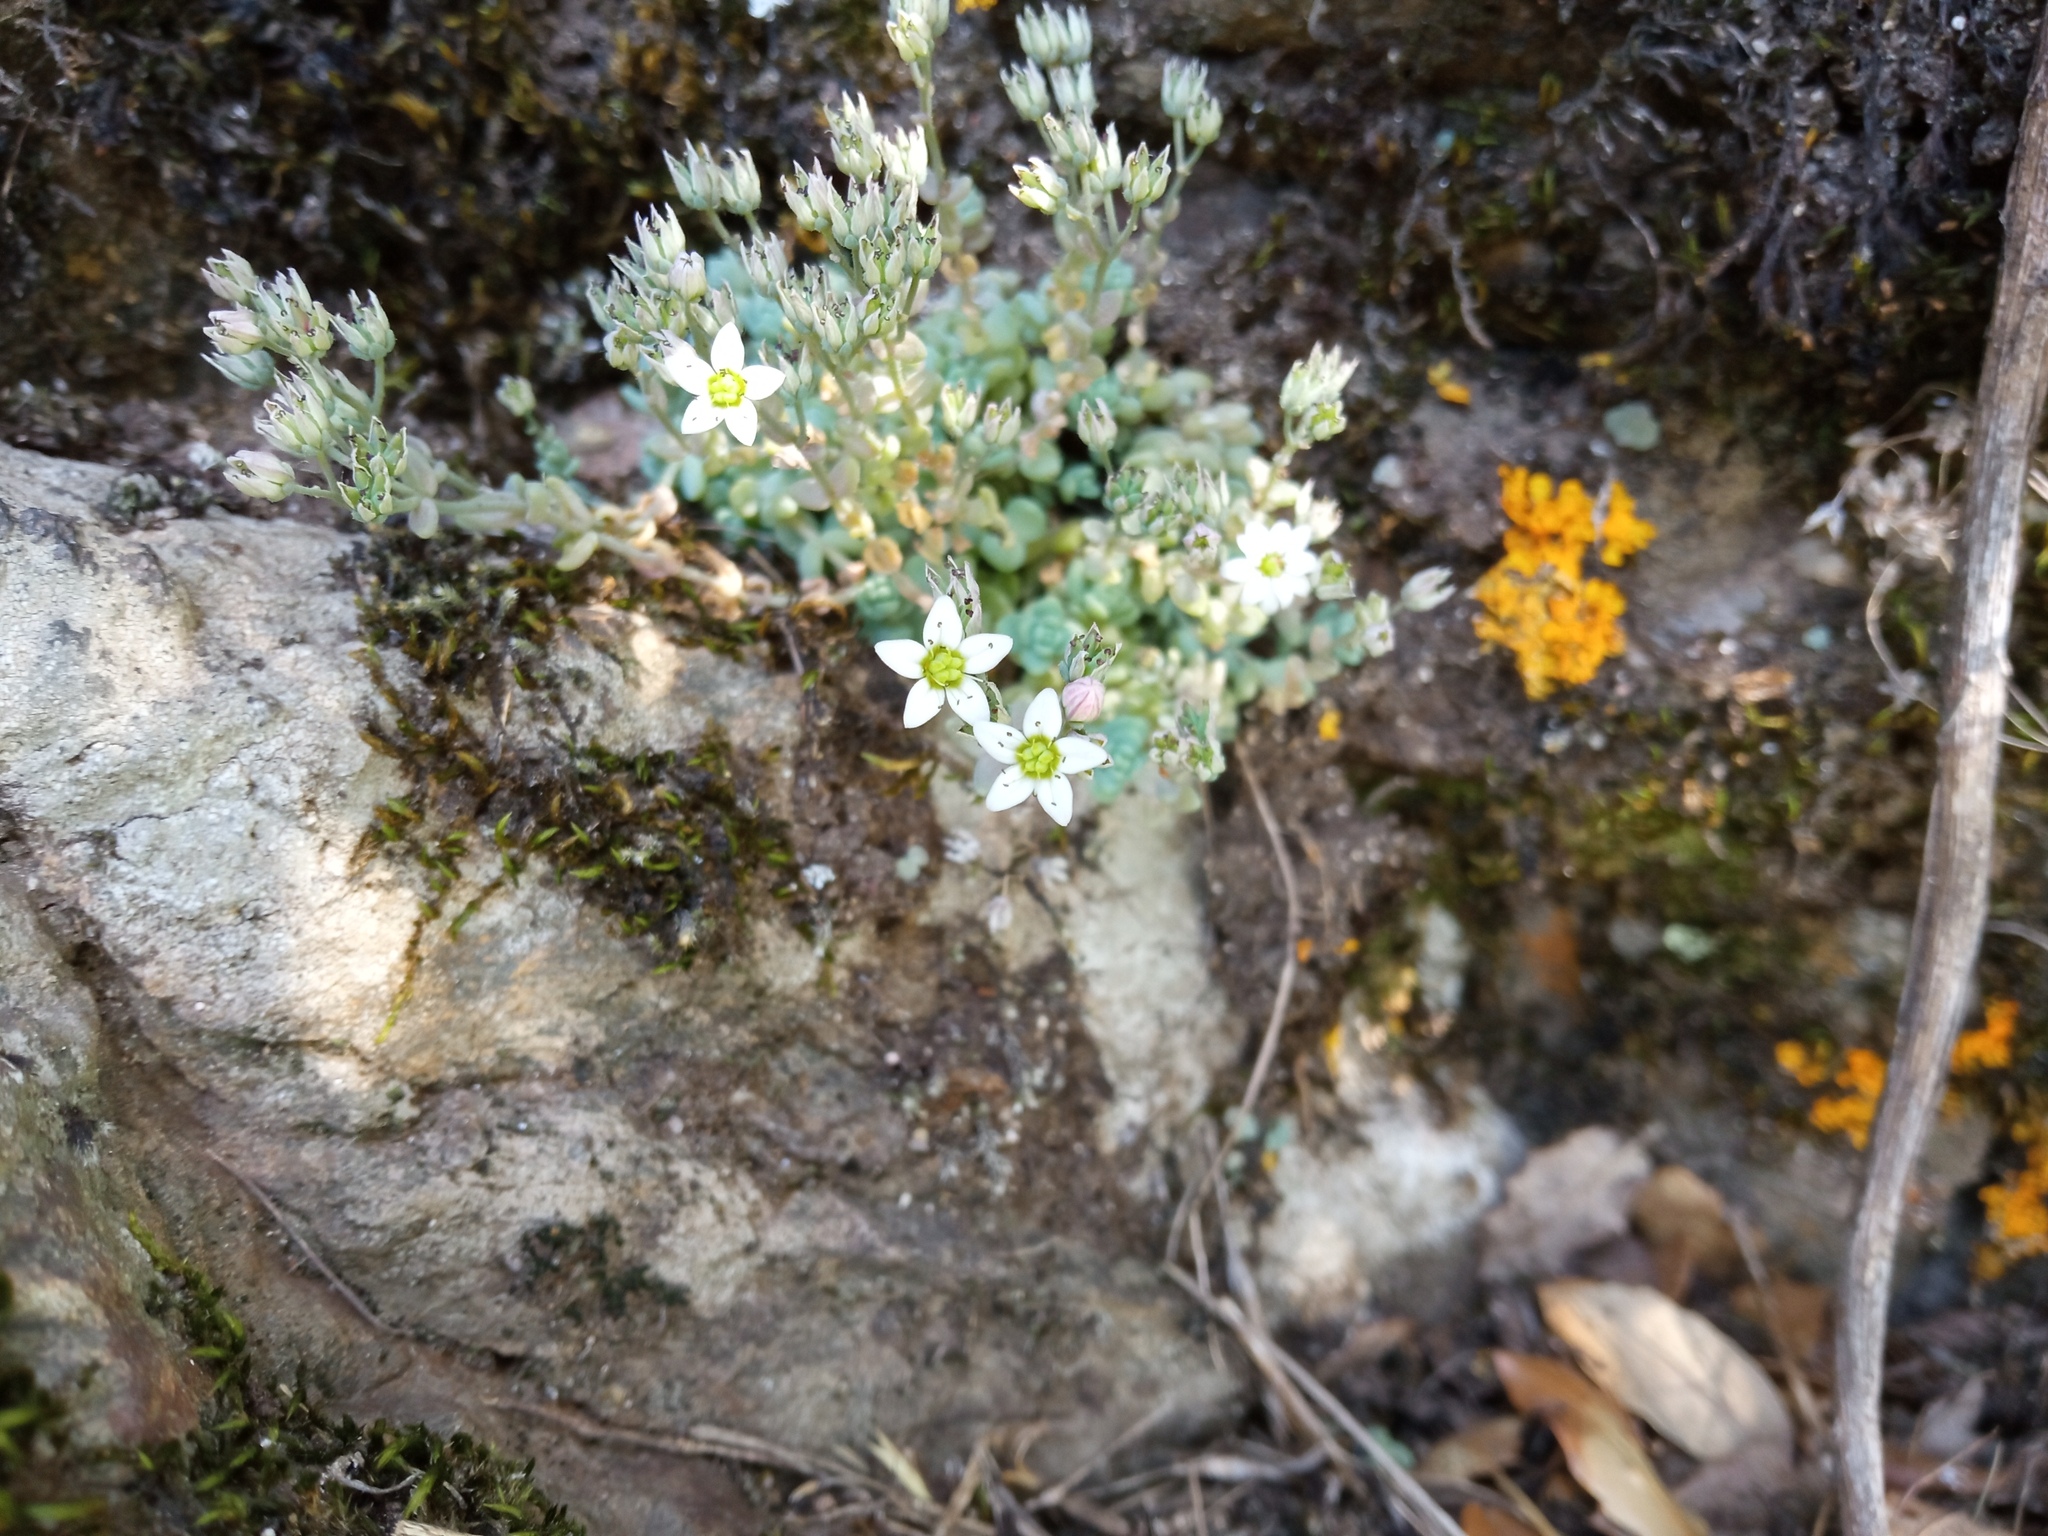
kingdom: Plantae
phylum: Tracheophyta
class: Magnoliopsida
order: Saxifragales
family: Crassulaceae
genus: Sedum
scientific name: Sedum dasyphyllum
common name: Thick-leaf stonecrop
